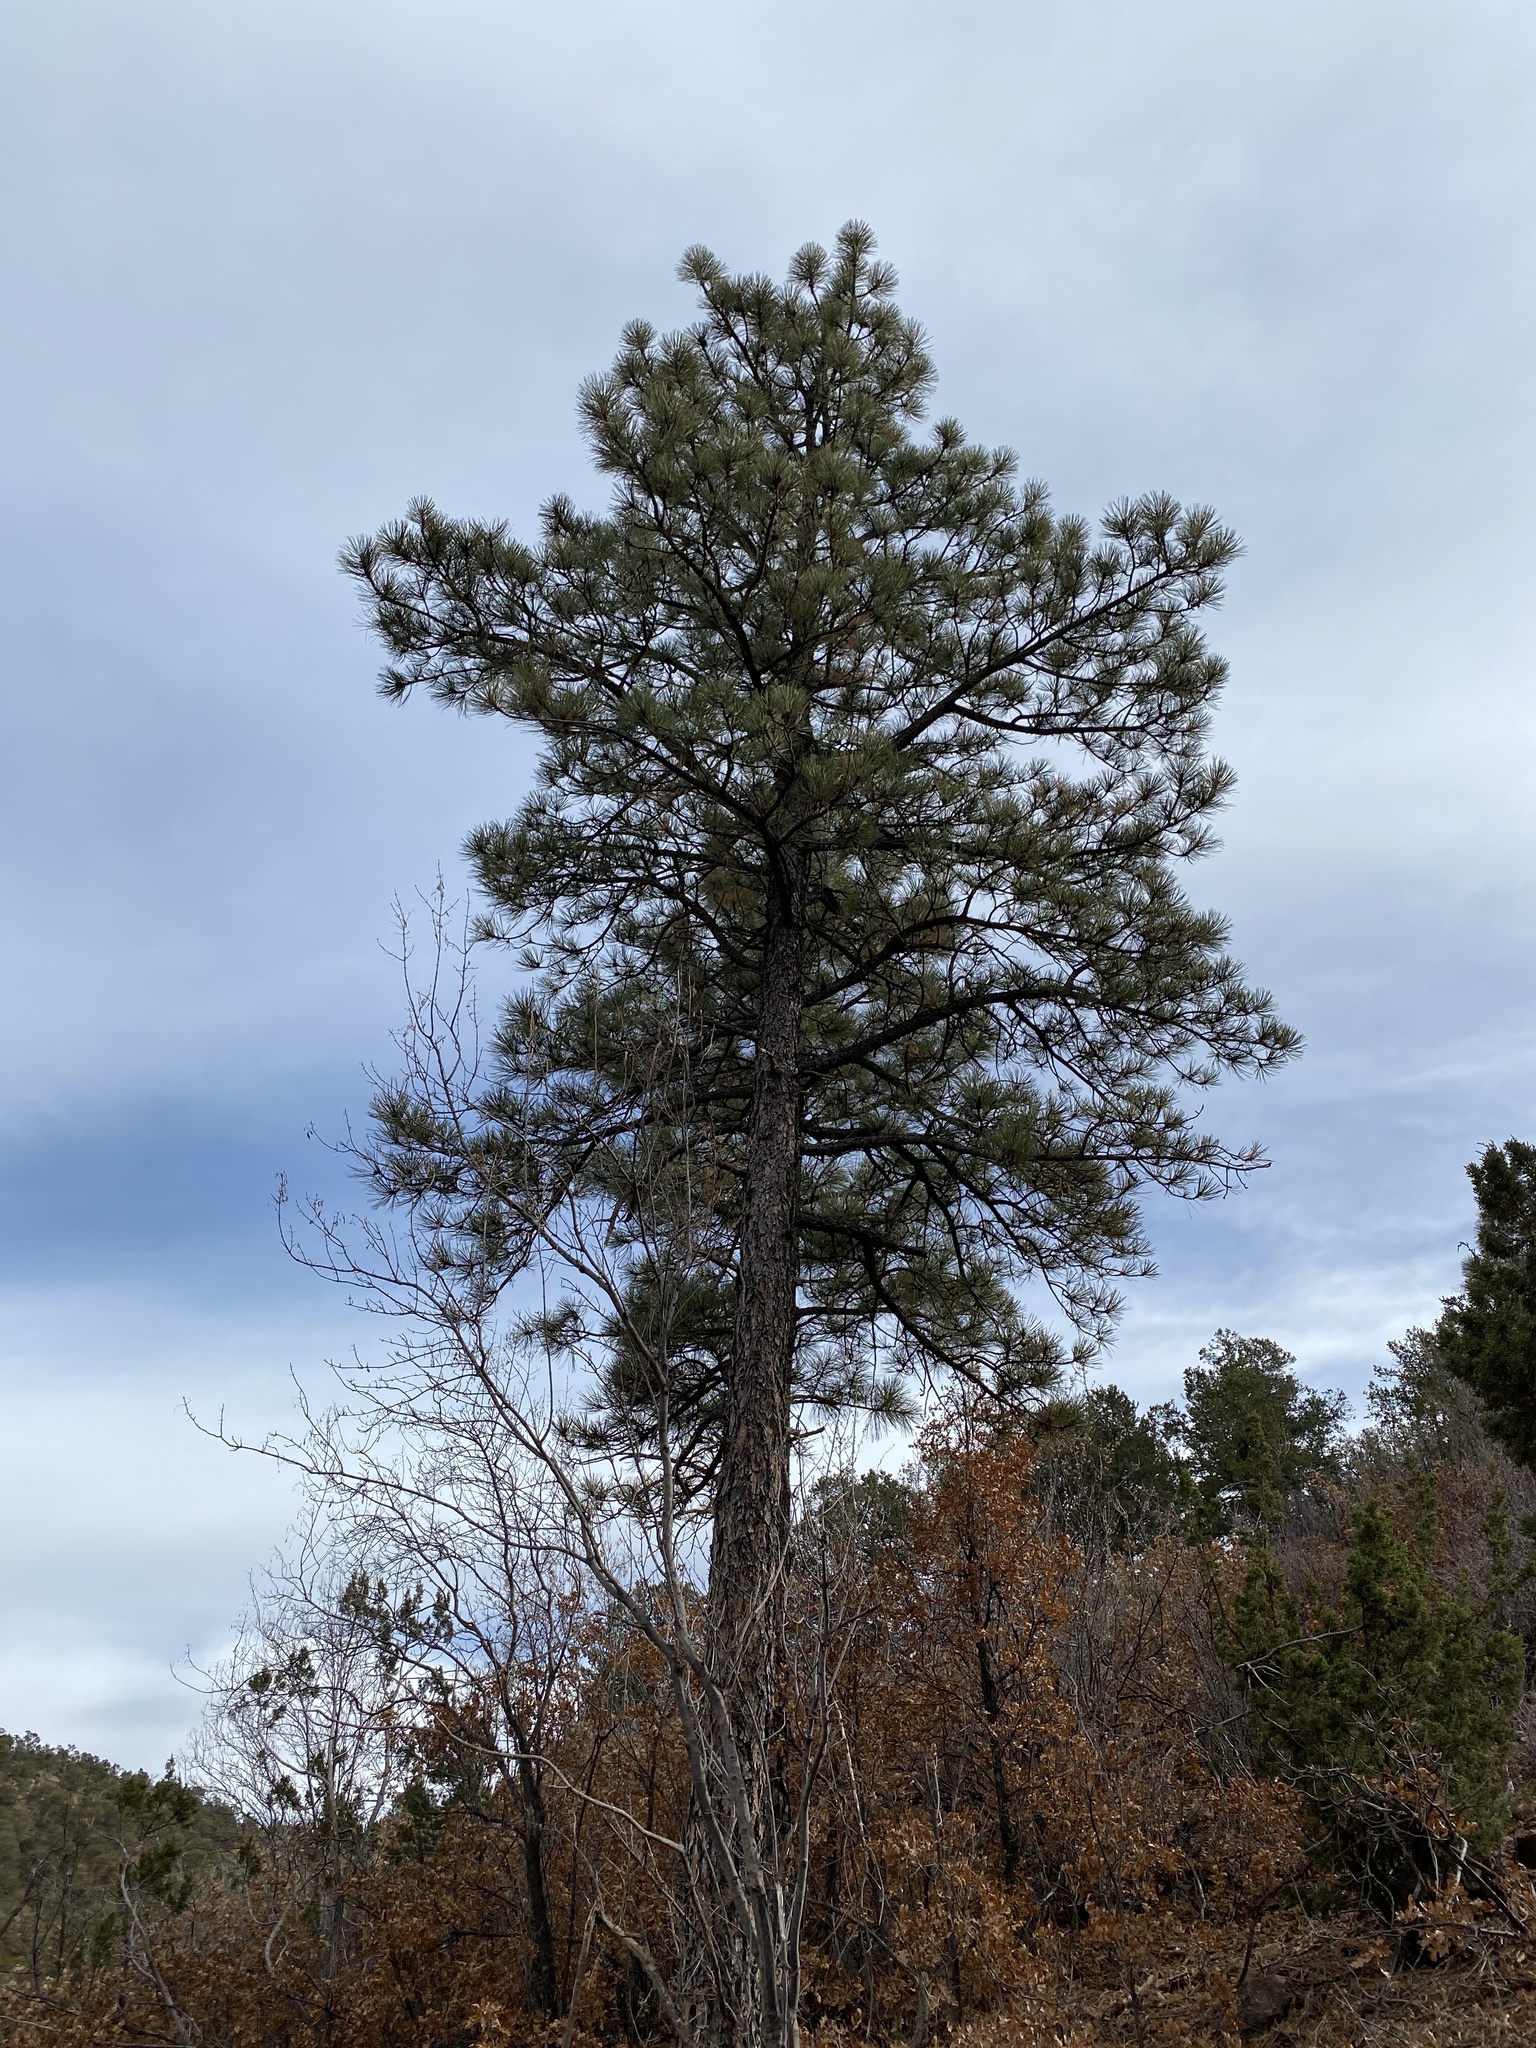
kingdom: Plantae
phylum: Tracheophyta
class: Pinopsida
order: Pinales
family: Pinaceae
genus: Pinus
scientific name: Pinus ponderosa
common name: Western yellow-pine
